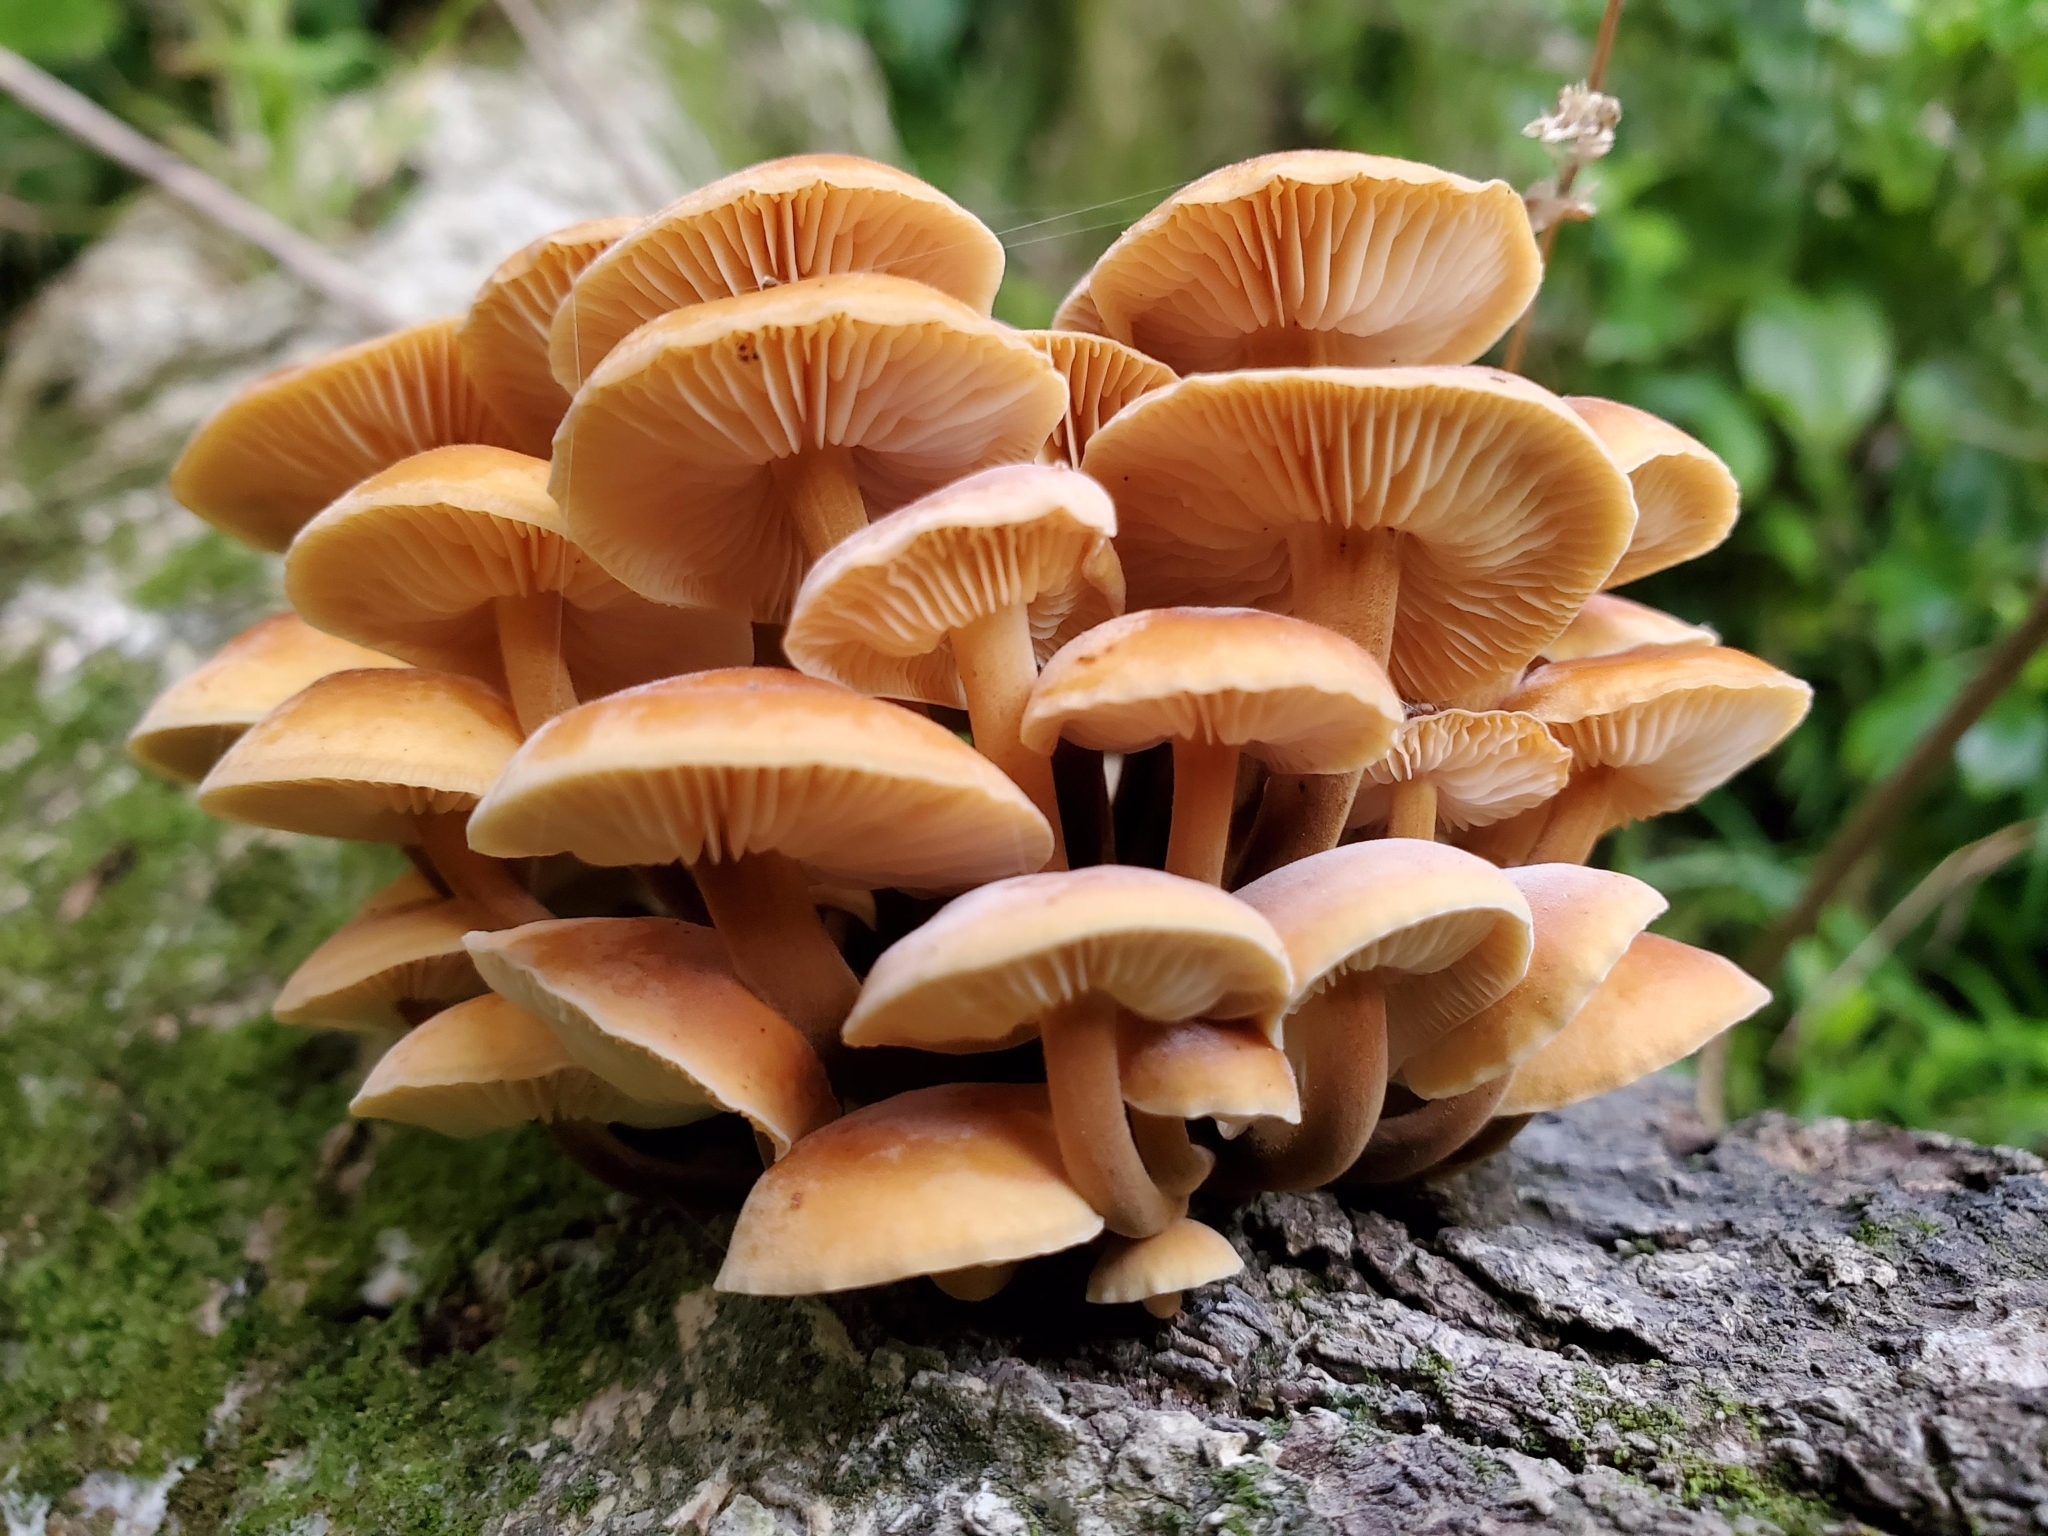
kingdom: Fungi
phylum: Basidiomycota
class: Agaricomycetes
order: Agaricales
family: Physalacriaceae
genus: Flammulina
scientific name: Flammulina velutipes
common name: Velvet shank
